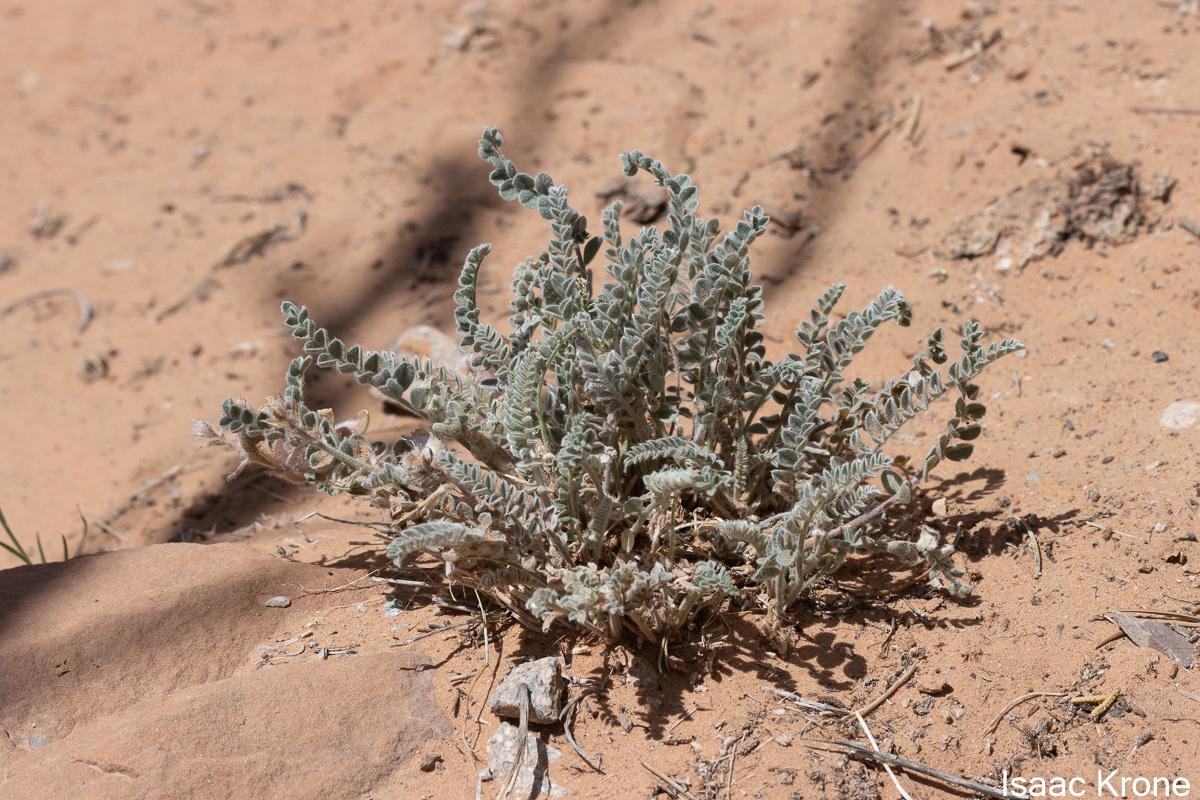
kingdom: Plantae
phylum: Tracheophyta
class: Magnoliopsida
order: Fabales
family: Fabaceae
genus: Astragalus
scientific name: Astragalus mollissimus
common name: Woolly locoweed
